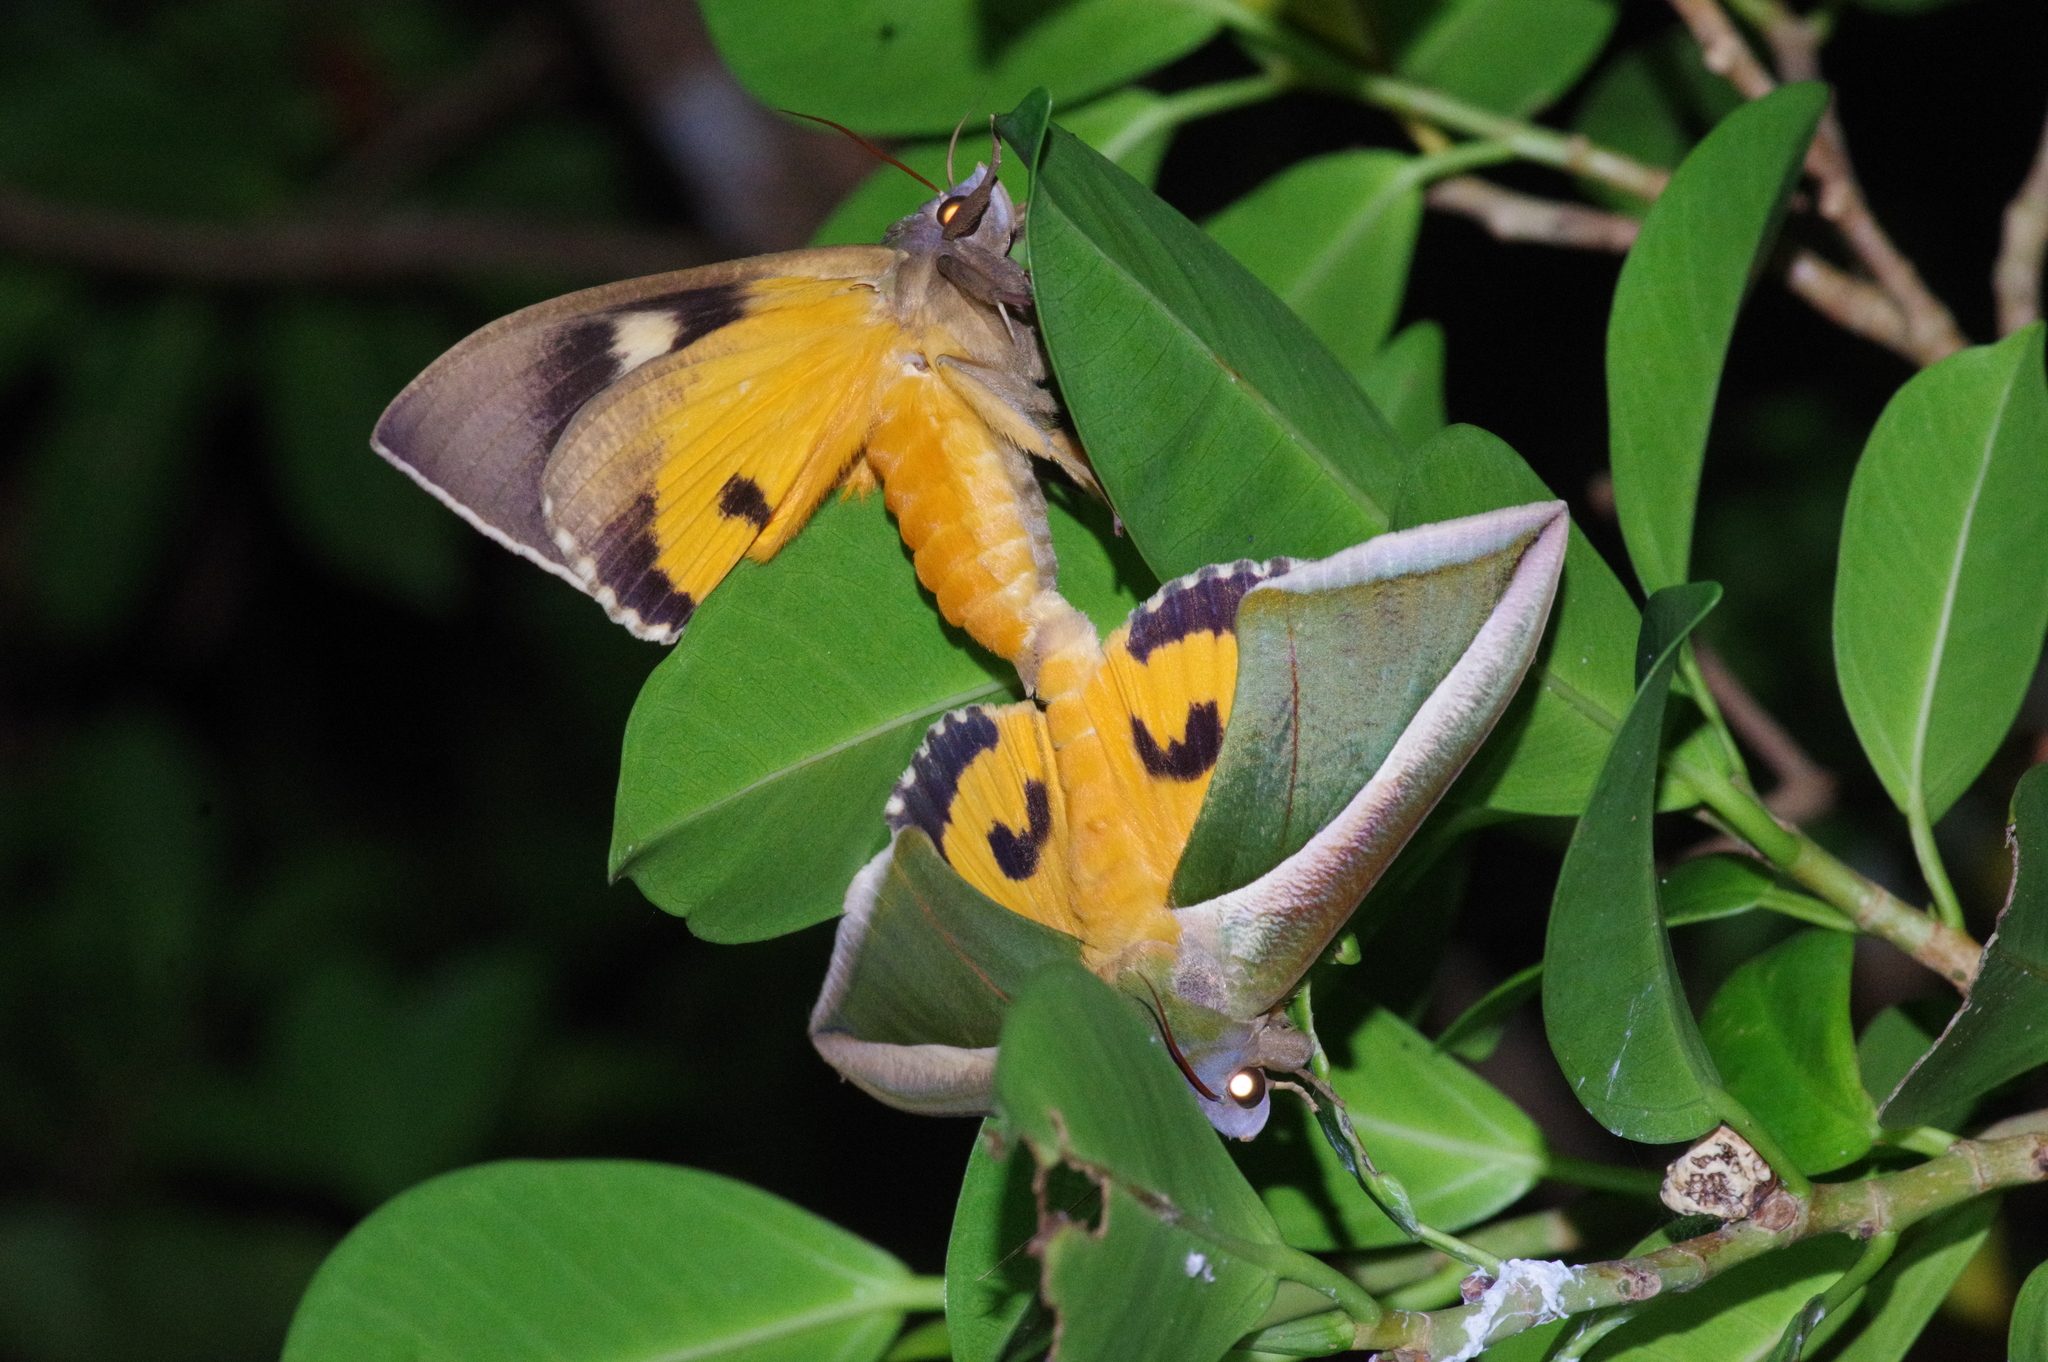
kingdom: Animalia
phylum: Arthropoda
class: Insecta
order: Lepidoptera
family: Erebidae
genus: Eudocima
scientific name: Eudocima salaminia
